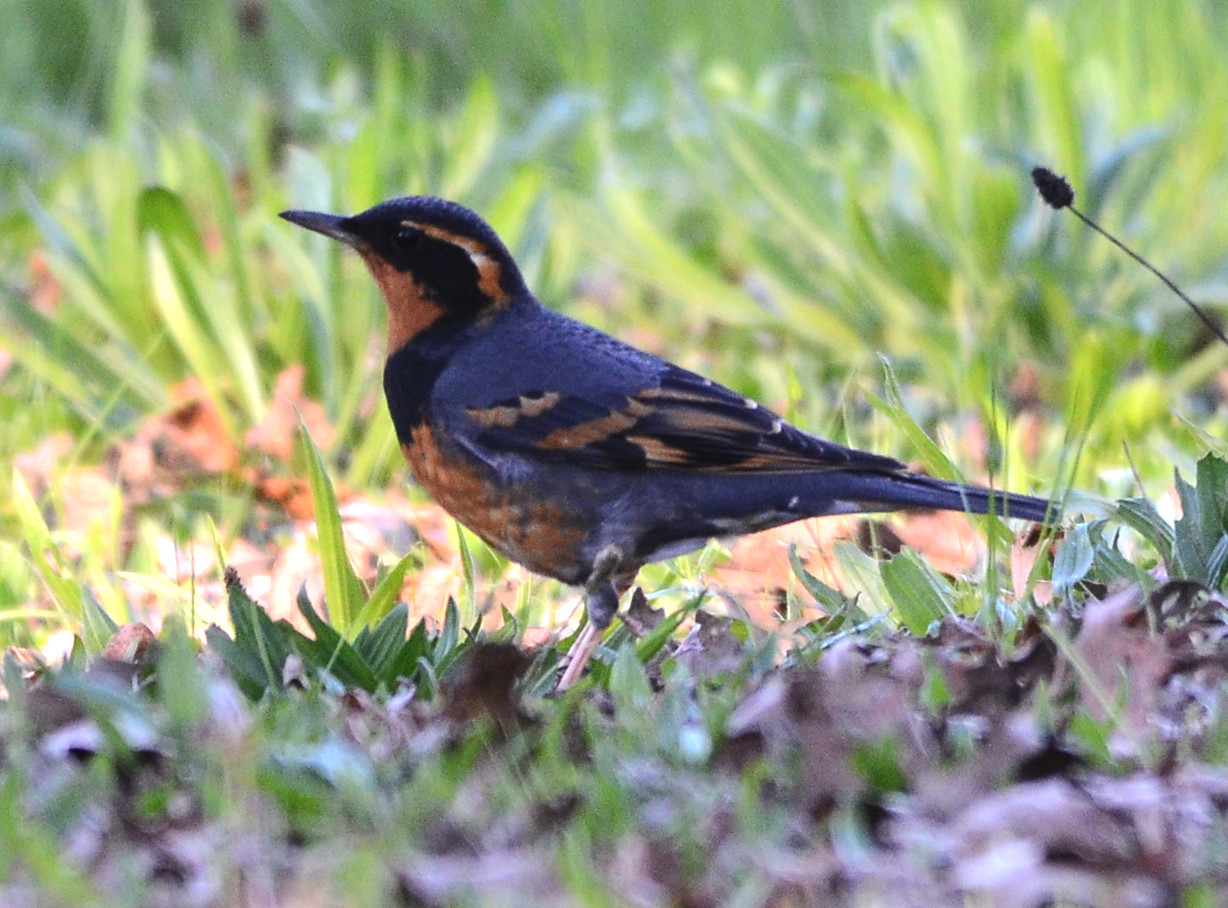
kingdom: Animalia
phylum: Chordata
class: Aves
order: Passeriformes
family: Turdidae
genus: Ixoreus
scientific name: Ixoreus naevius
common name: Varied thrush
